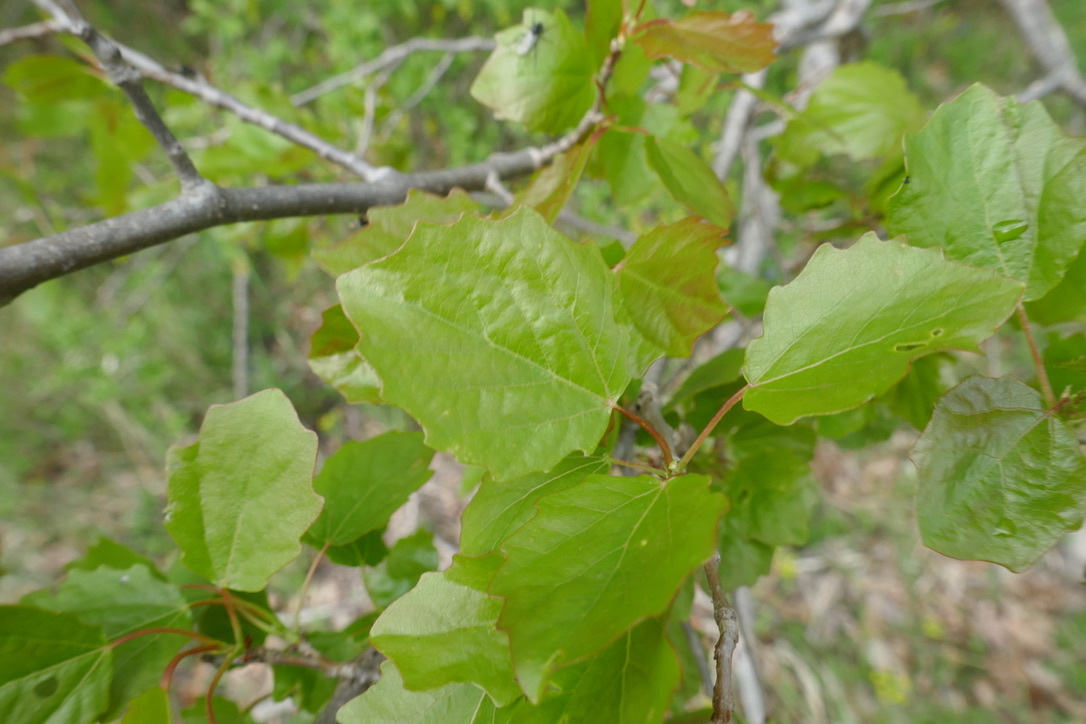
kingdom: Plantae
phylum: Tracheophyta
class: Magnoliopsida
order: Malpighiales
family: Salicaceae
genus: Populus
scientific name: Populus canescens
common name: Gray poplar
